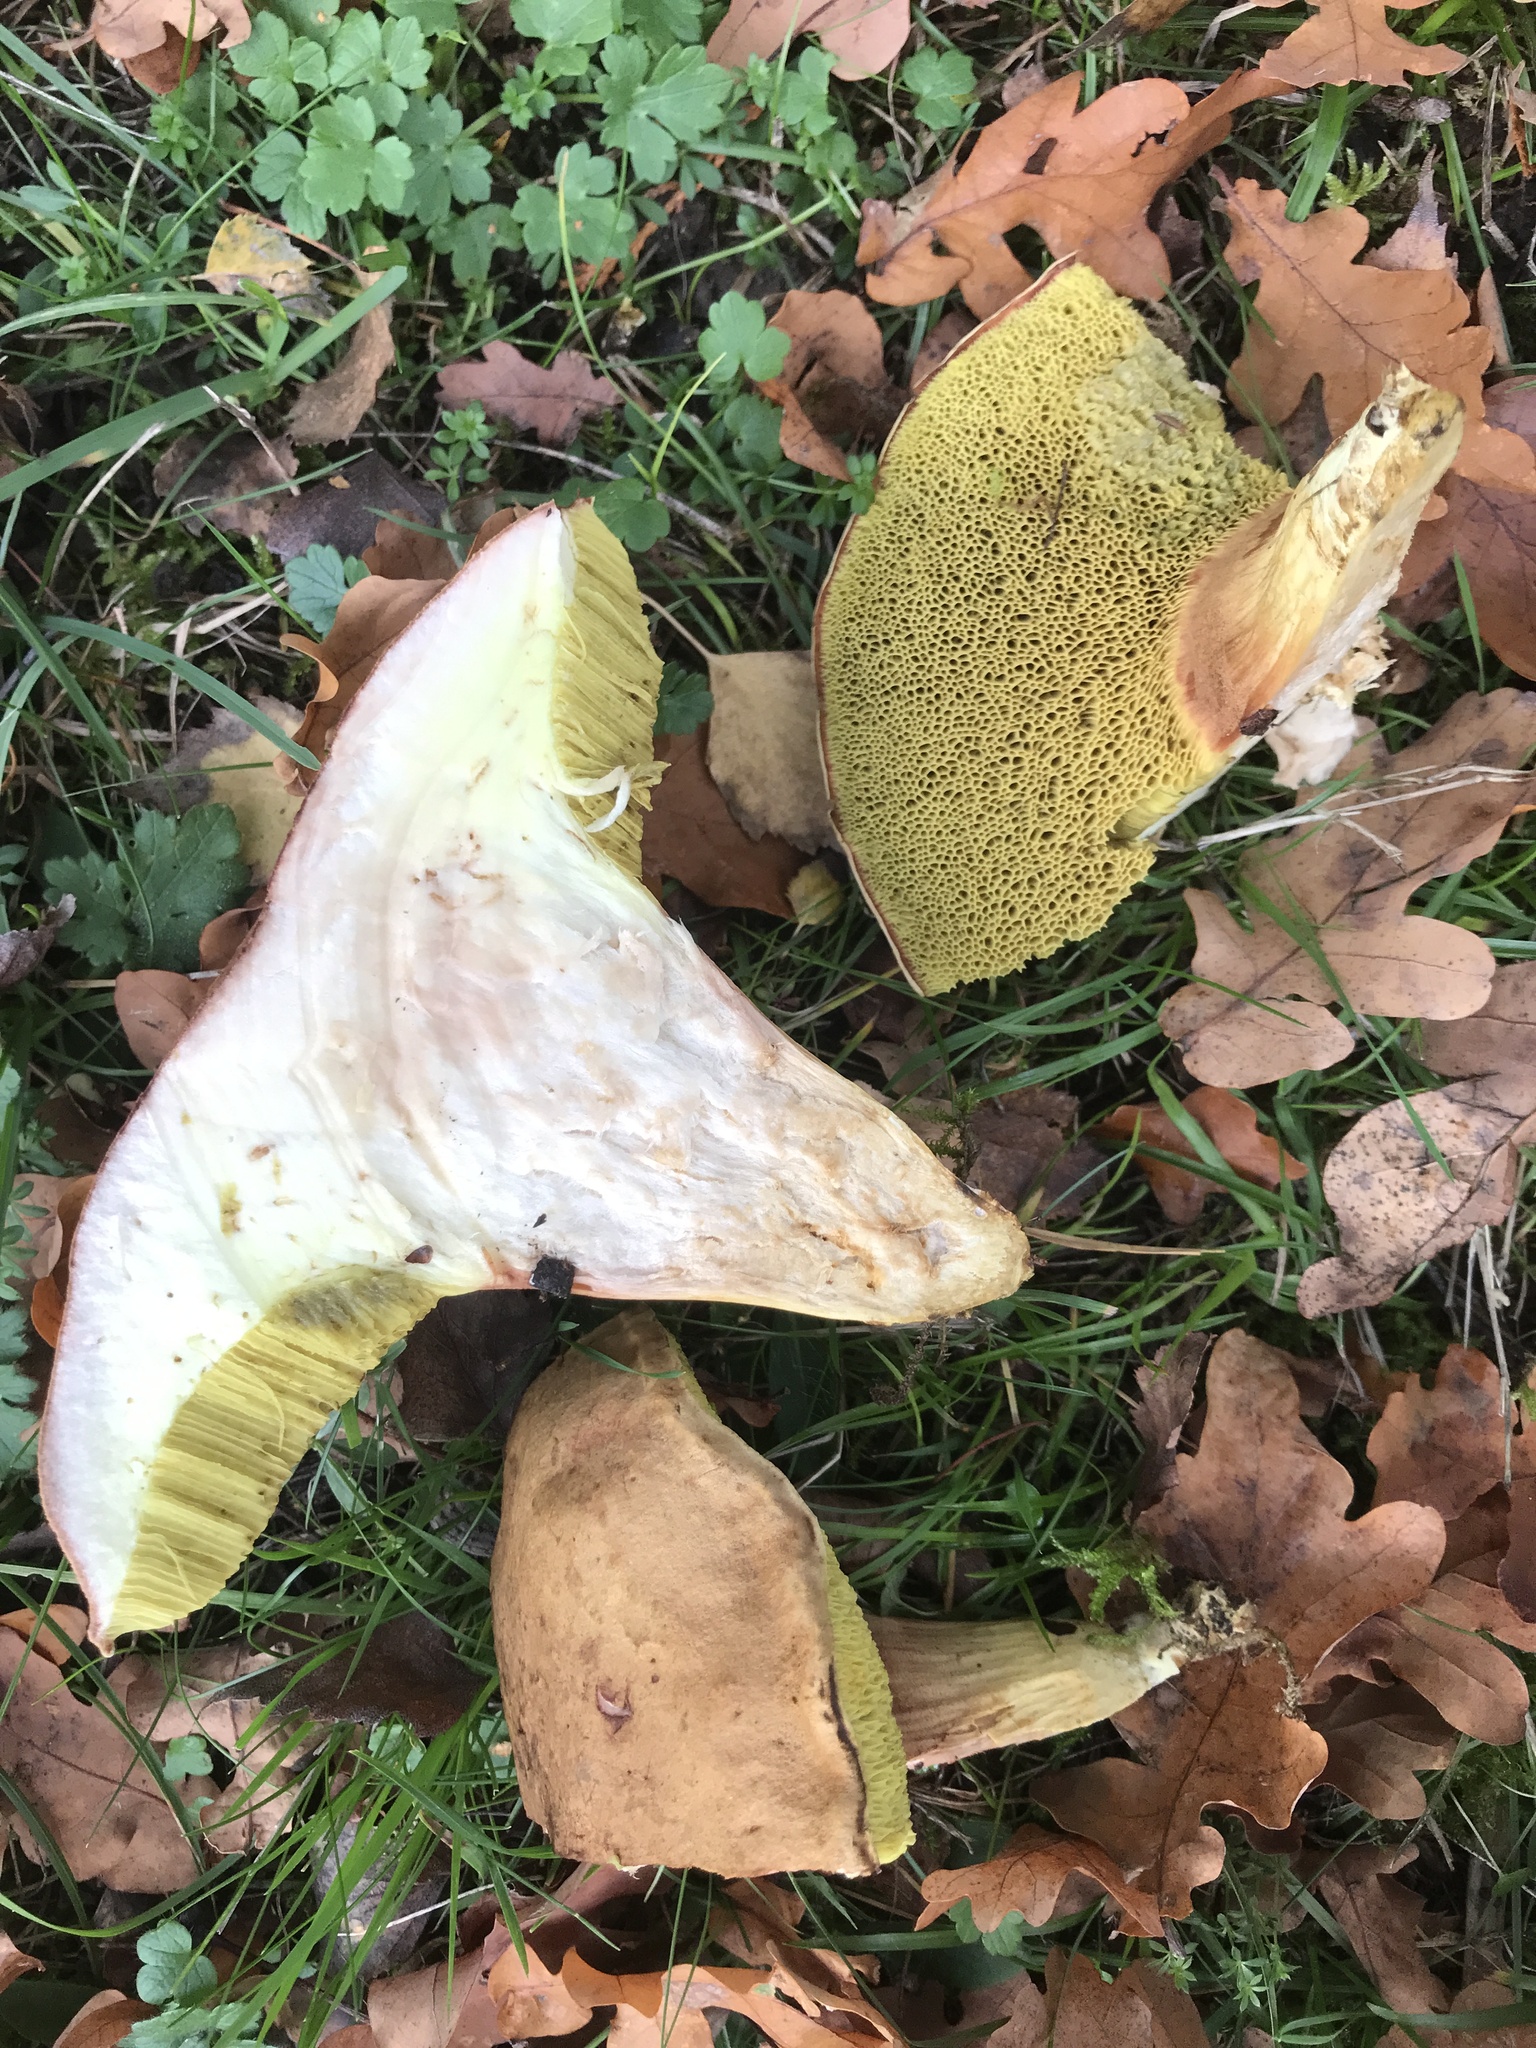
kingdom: Fungi
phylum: Basidiomycota
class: Agaricomycetes
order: Boletales
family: Boletaceae
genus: Xerocomus
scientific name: Xerocomus subtomentosus
